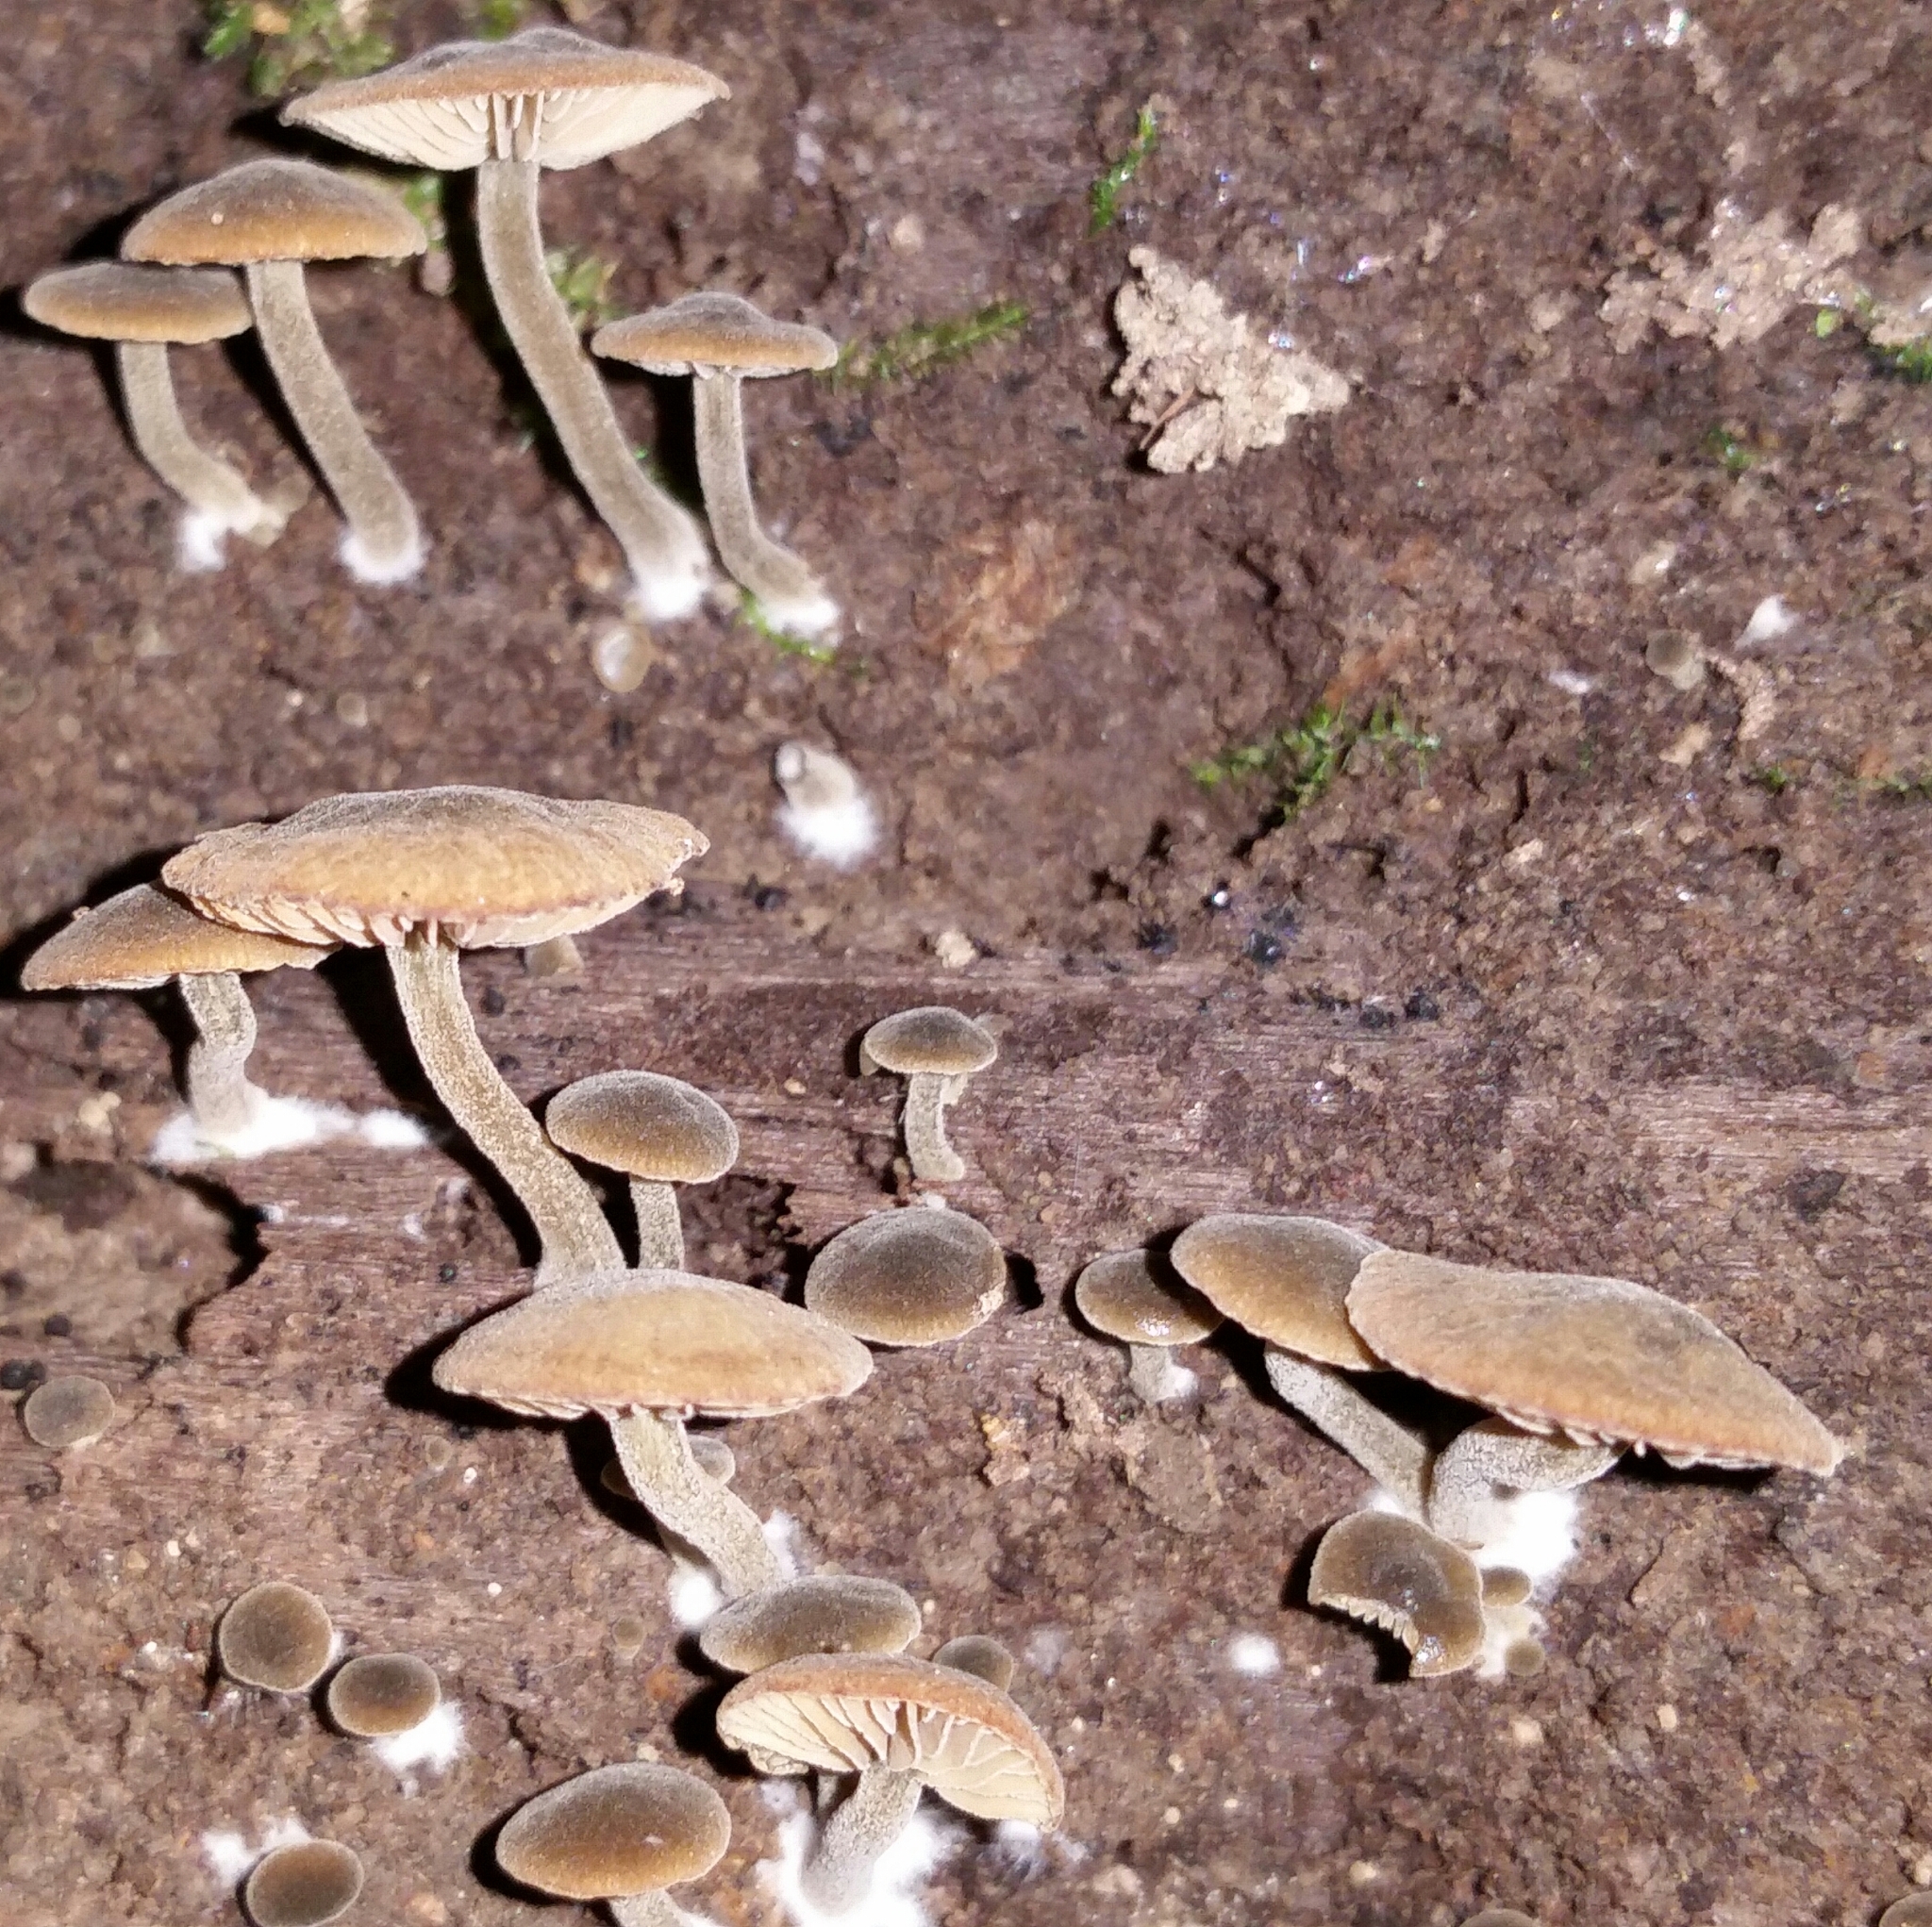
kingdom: Fungi
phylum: Basidiomycota
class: Agaricomycetes
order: Agaricales
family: Crepidotaceae
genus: Simocybe
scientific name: Simocybe centunculus
